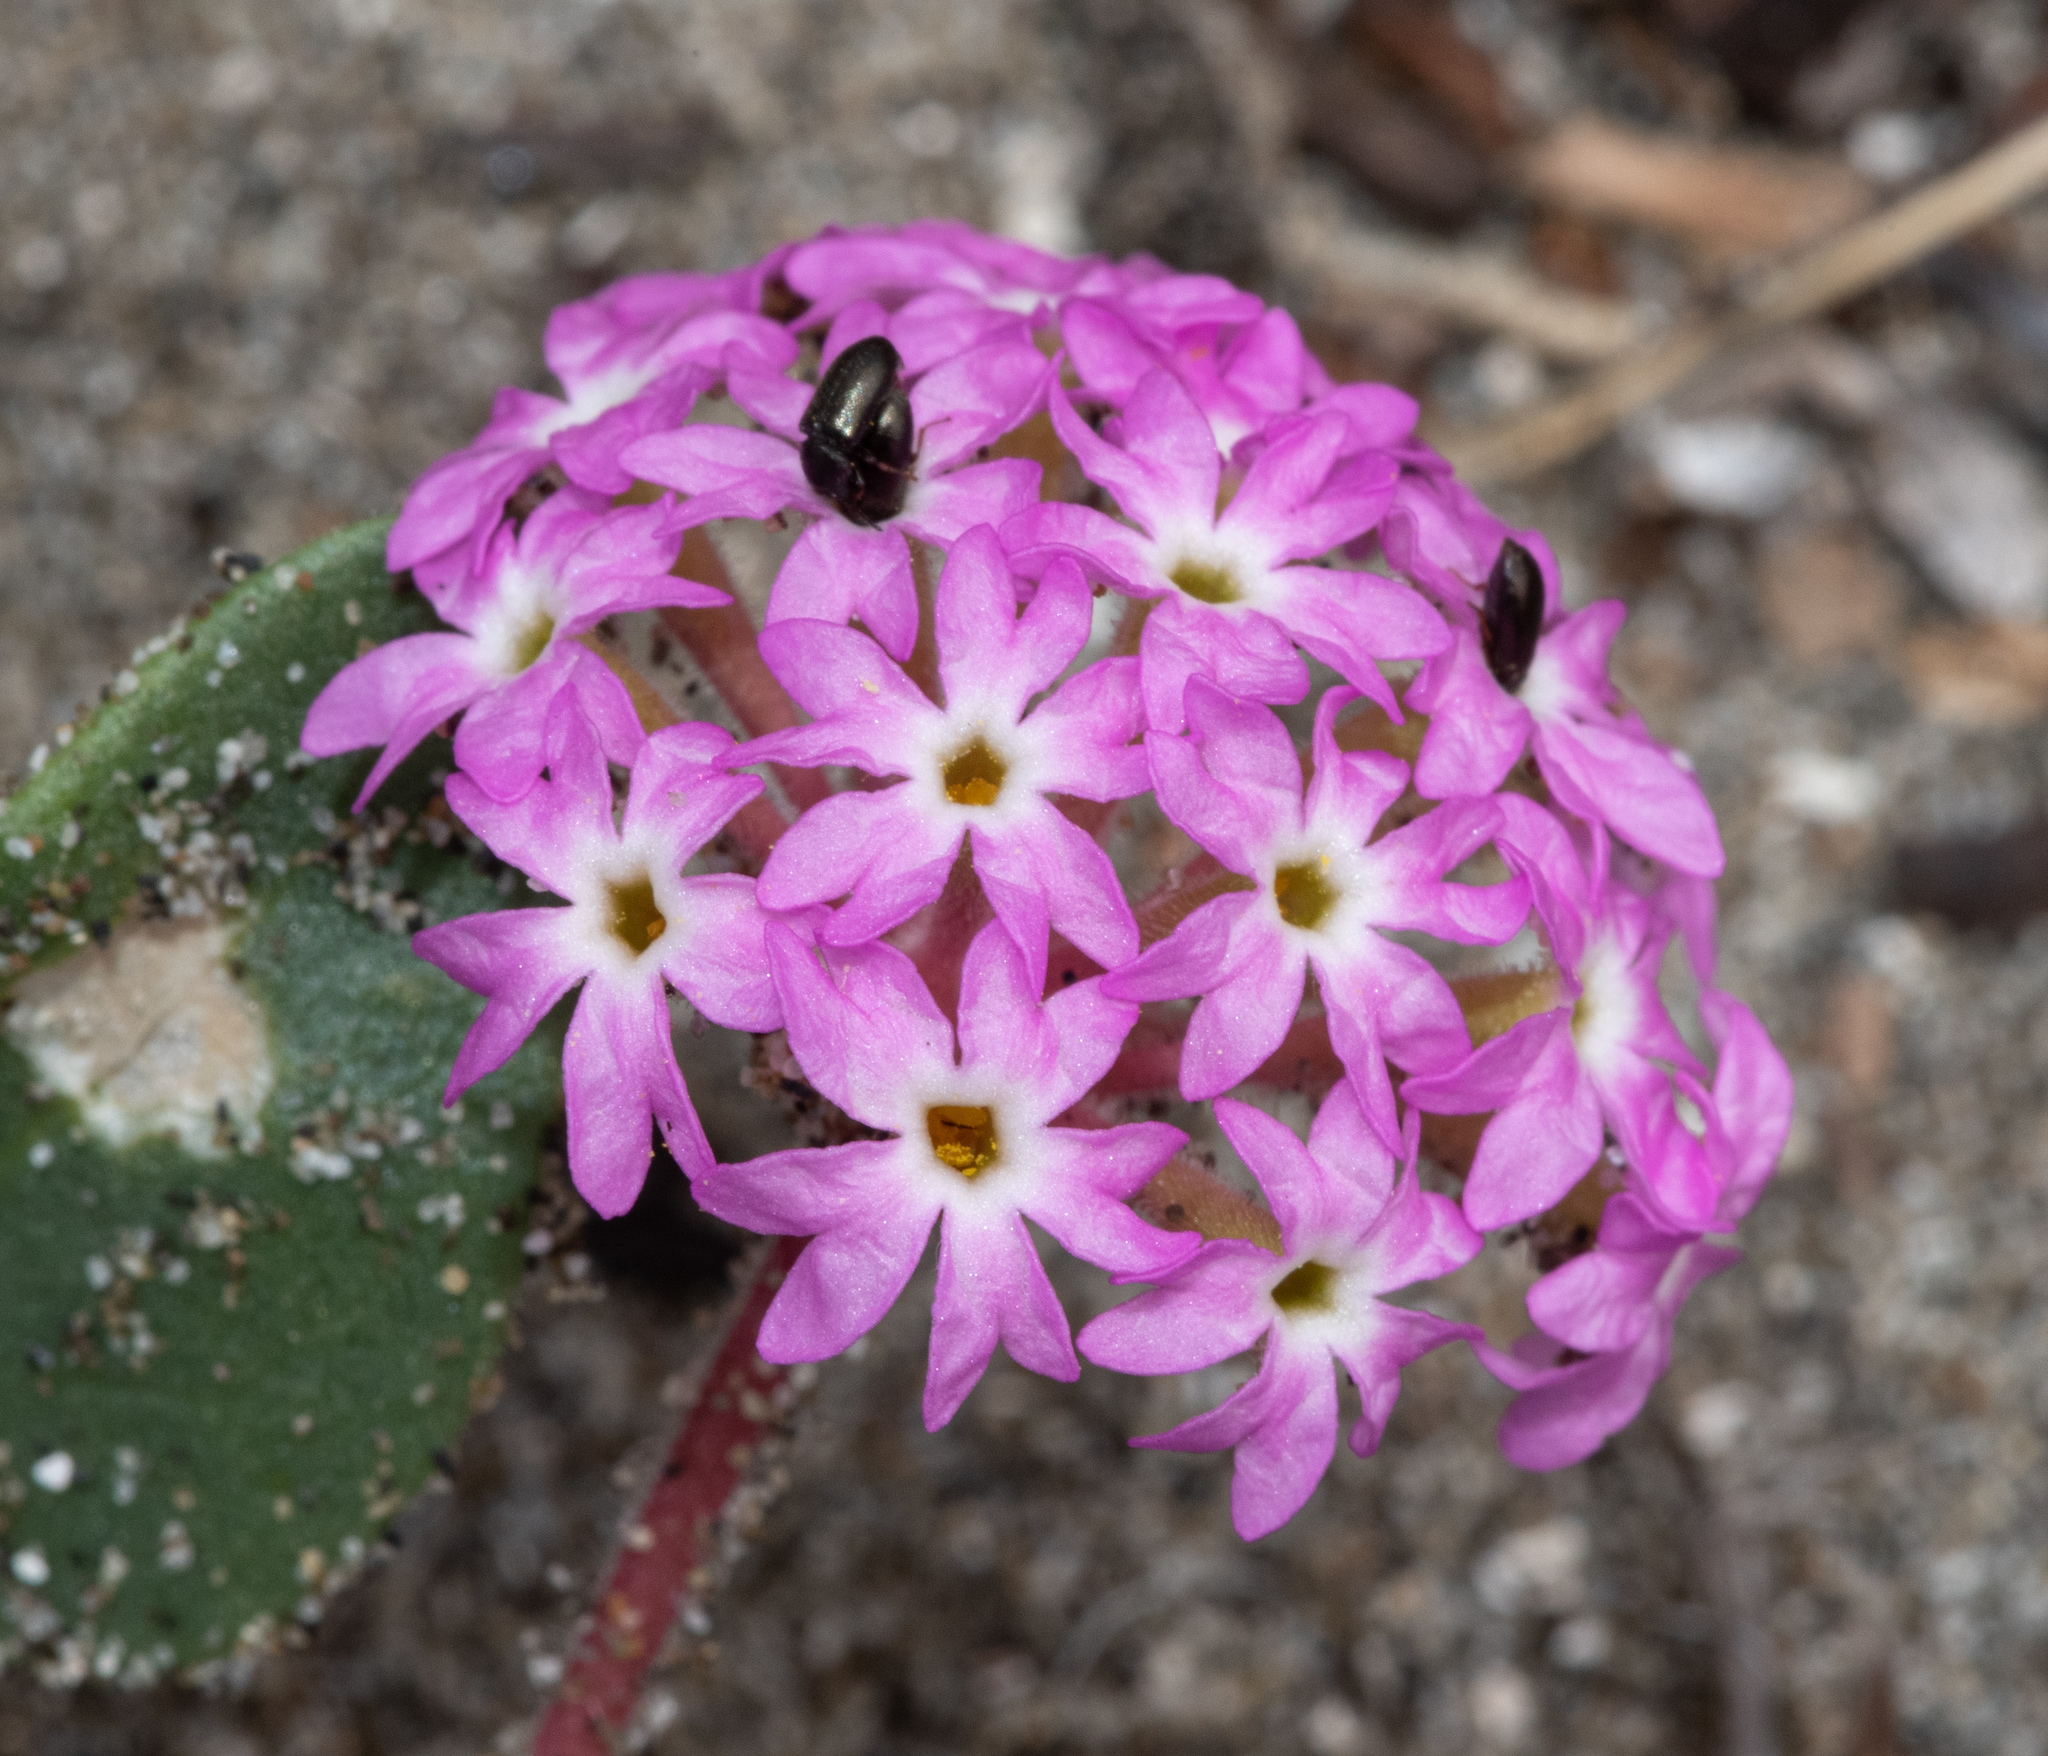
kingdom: Plantae
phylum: Tracheophyta
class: Magnoliopsida
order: Caryophyllales
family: Nyctaginaceae
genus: Abronia
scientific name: Abronia umbellata
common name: Sand-verbena
